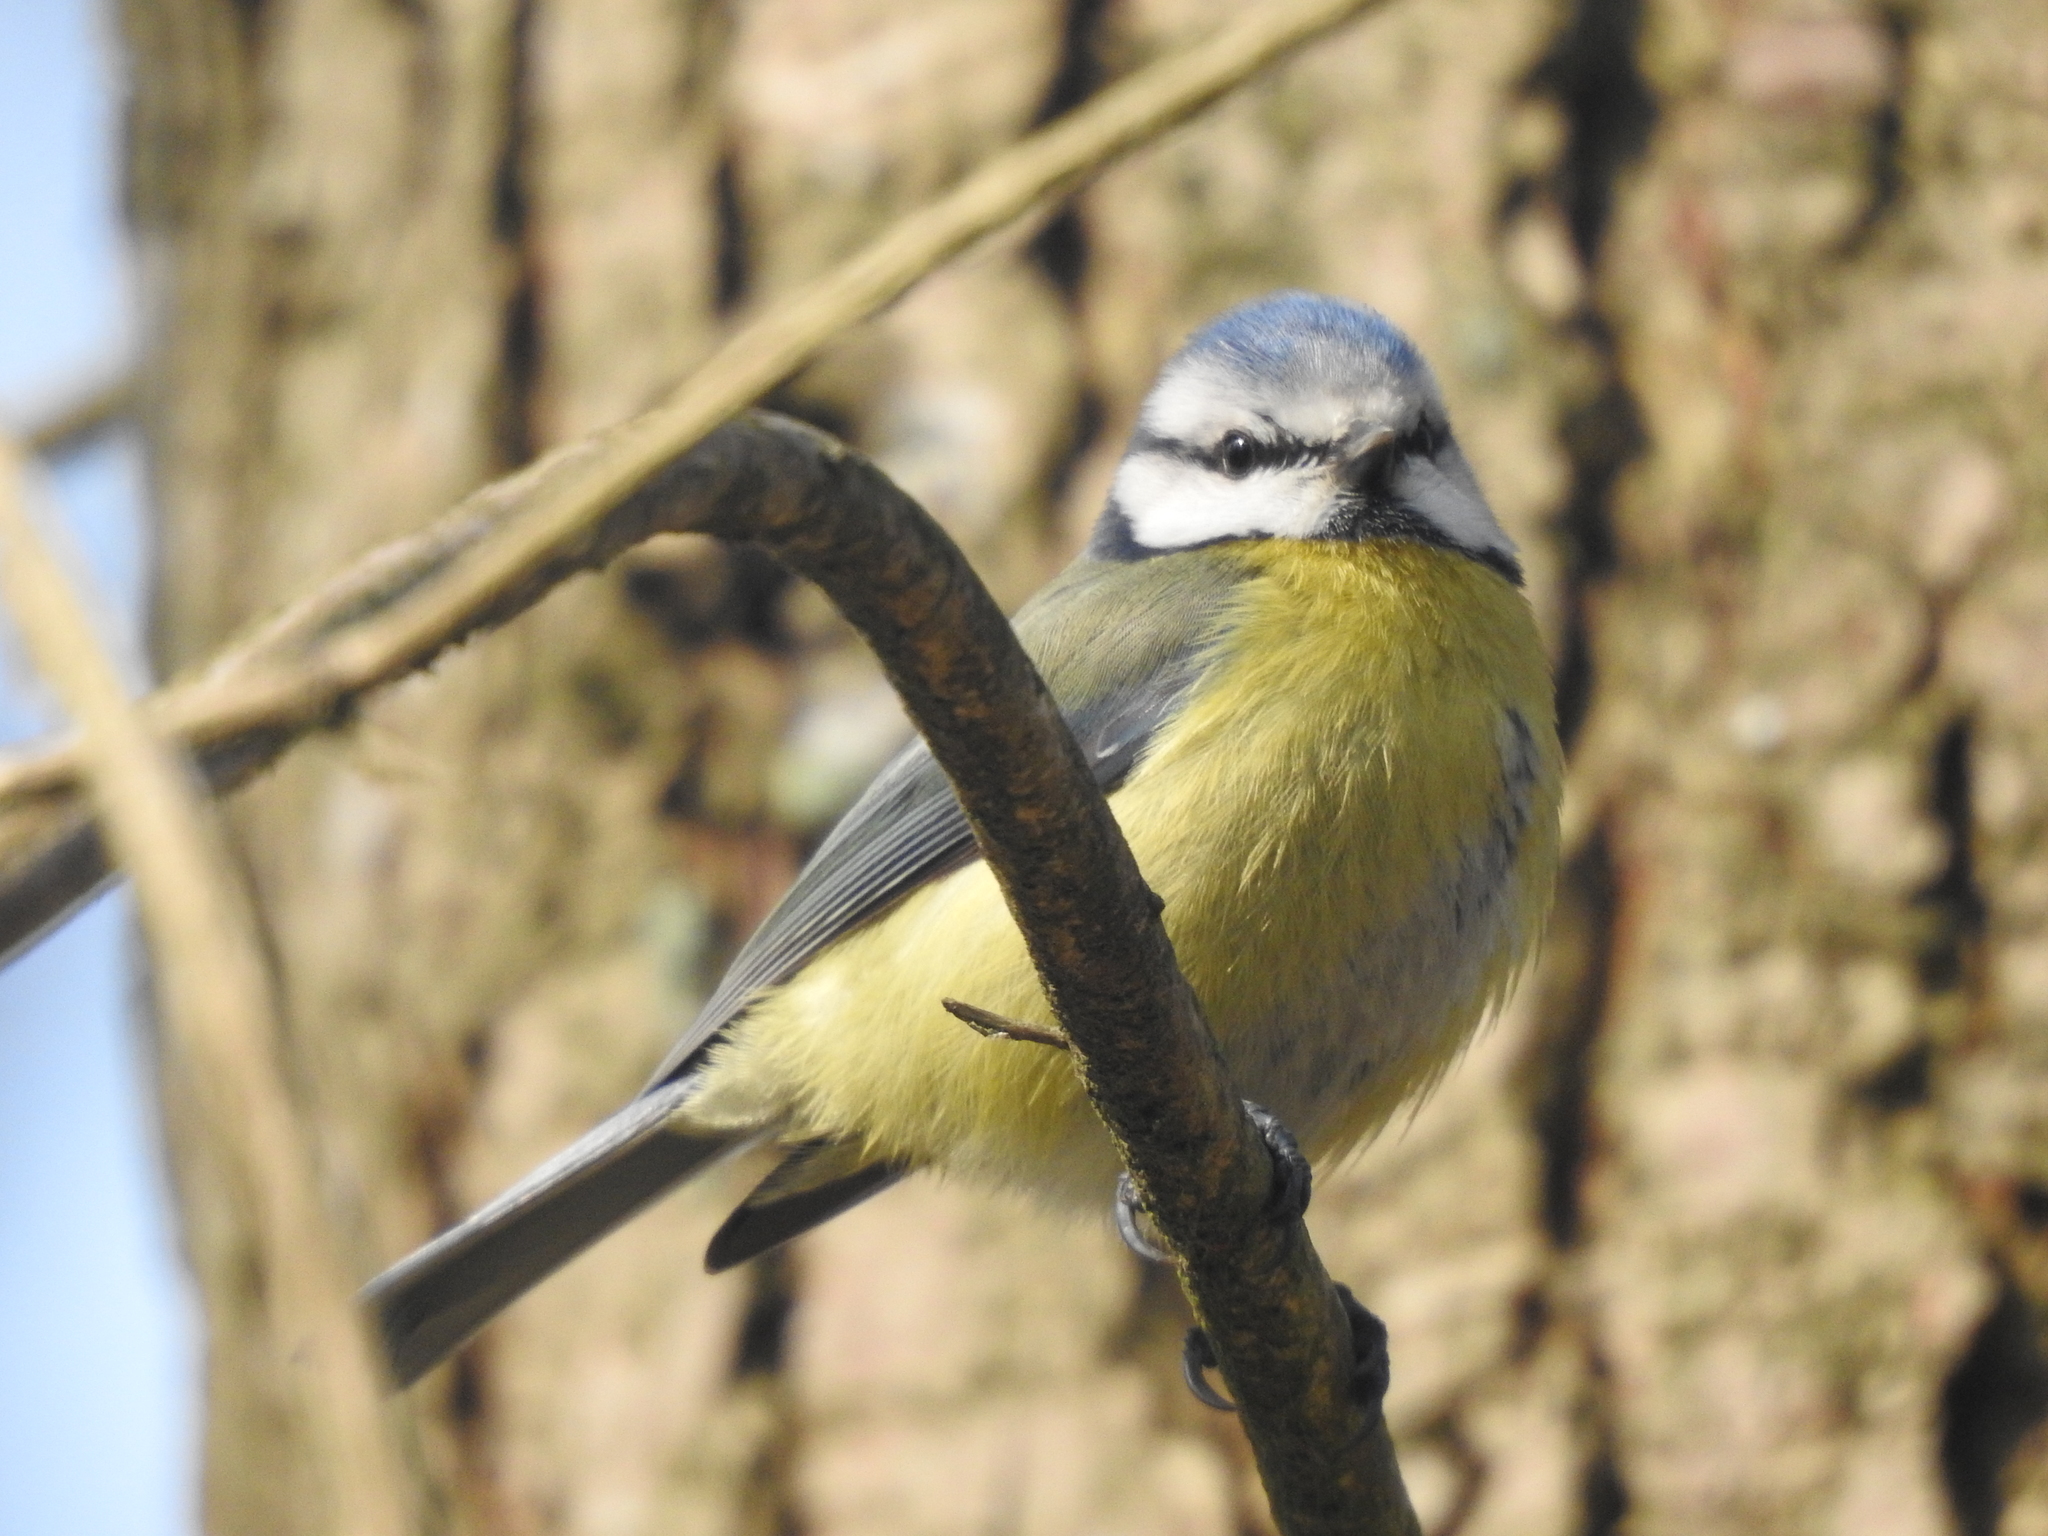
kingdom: Animalia
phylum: Chordata
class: Aves
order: Passeriformes
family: Paridae
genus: Cyanistes
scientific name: Cyanistes caeruleus
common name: Eurasian blue tit
